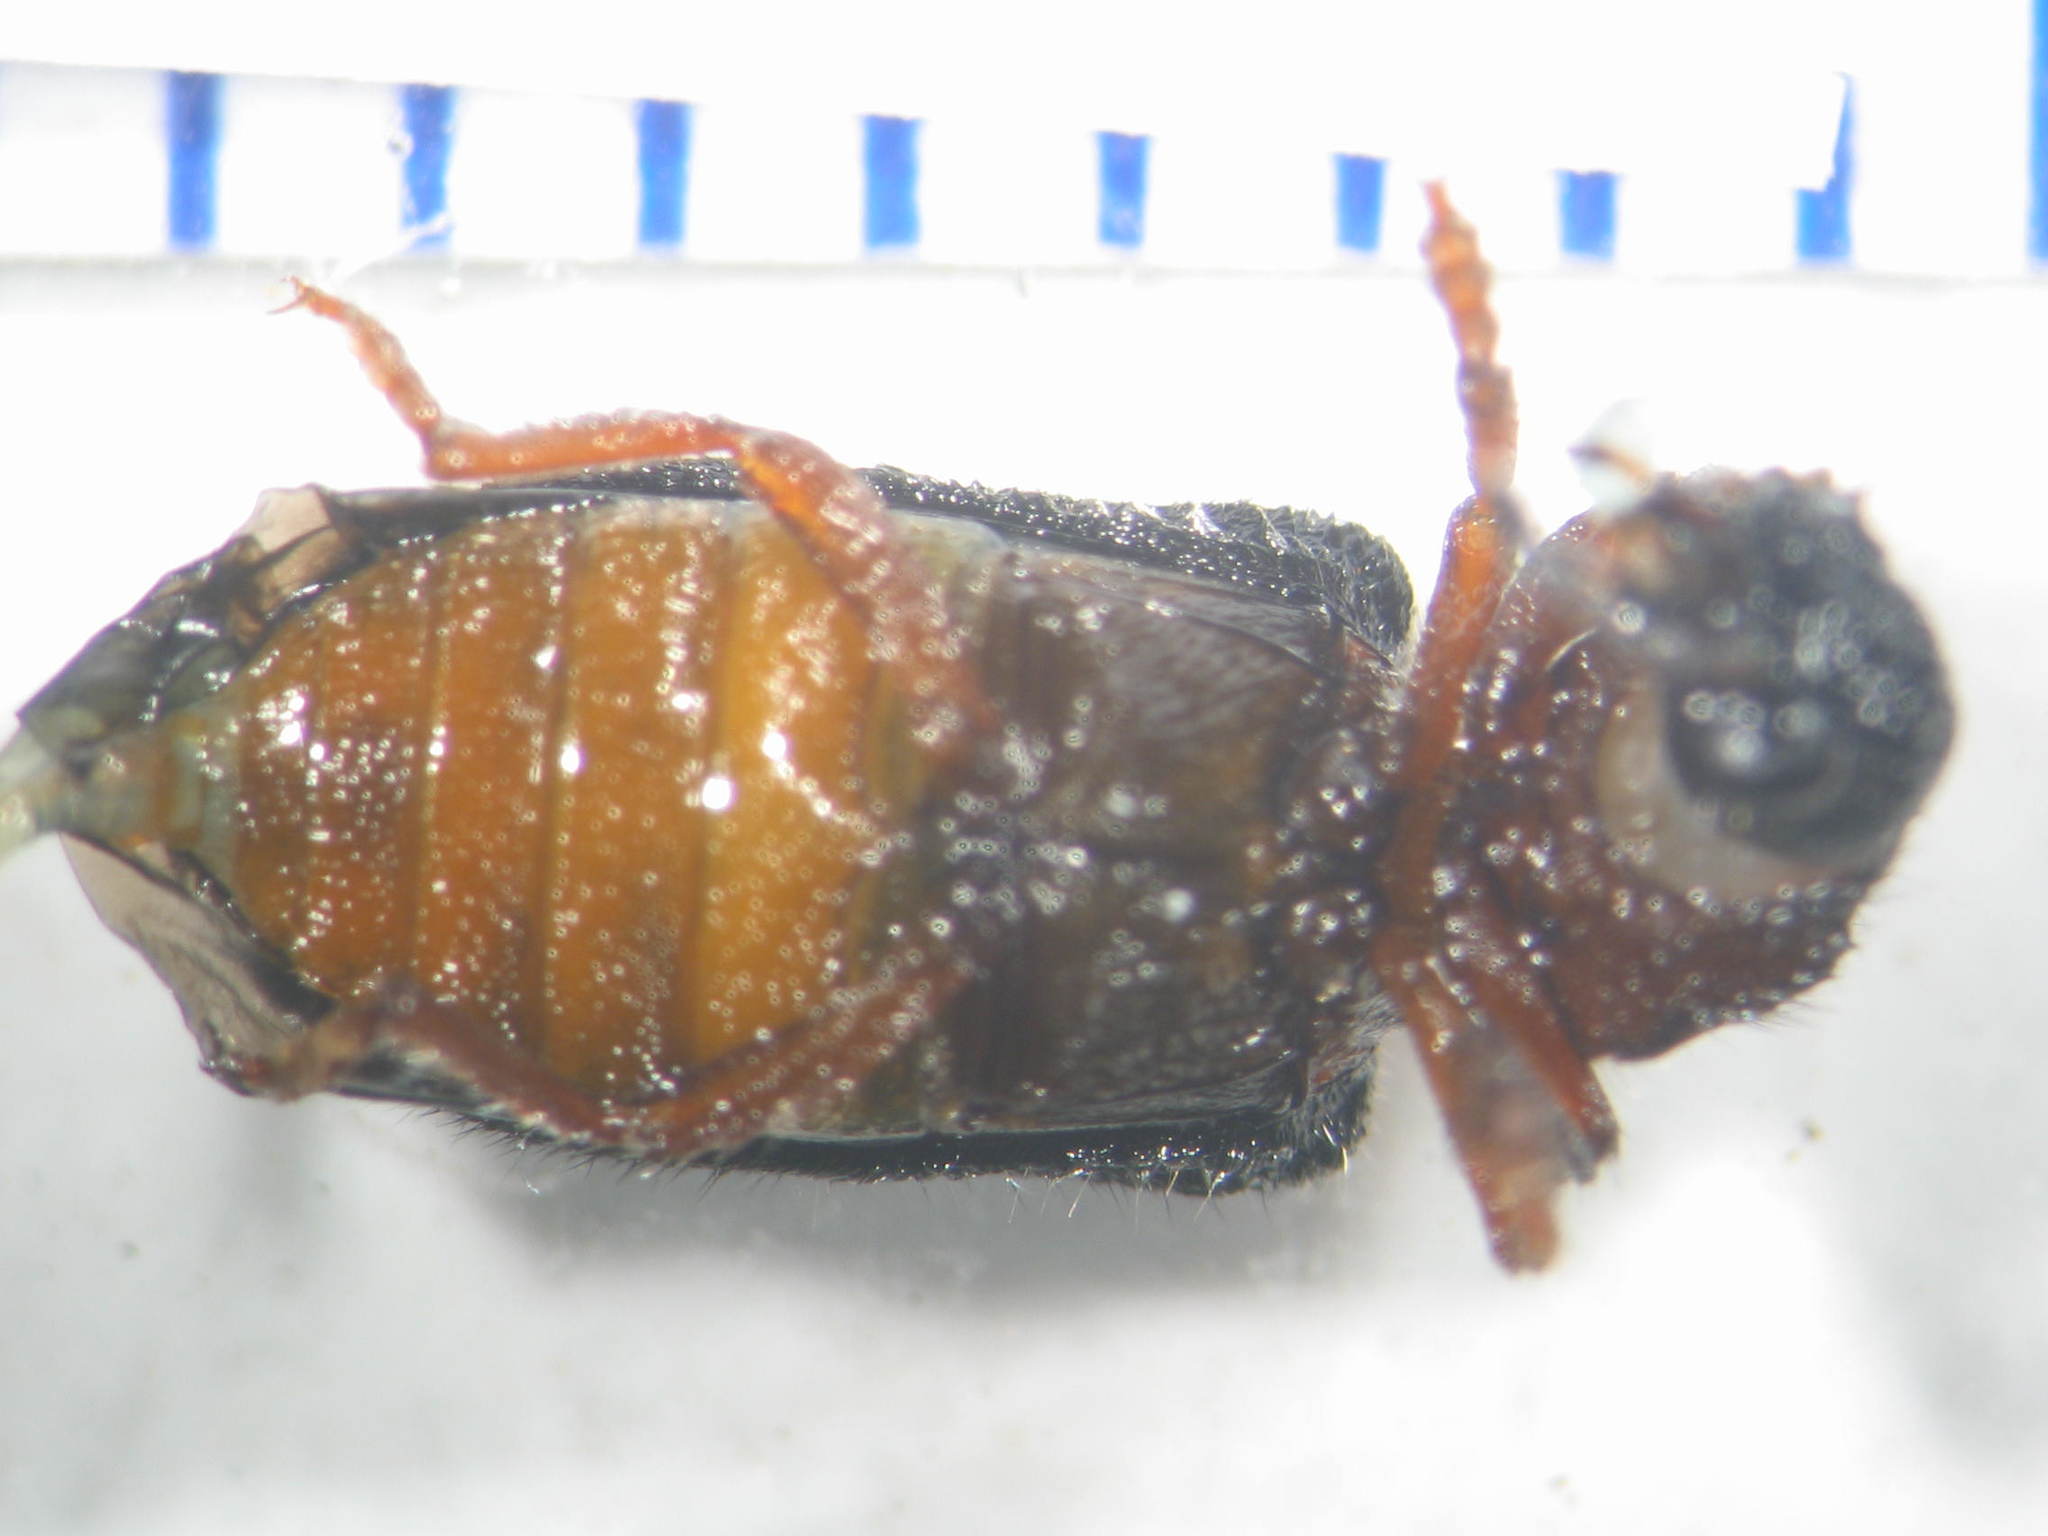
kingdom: Animalia
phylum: Arthropoda
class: Insecta
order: Coleoptera
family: Cleridae
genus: Parapylus
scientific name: Parapylus
